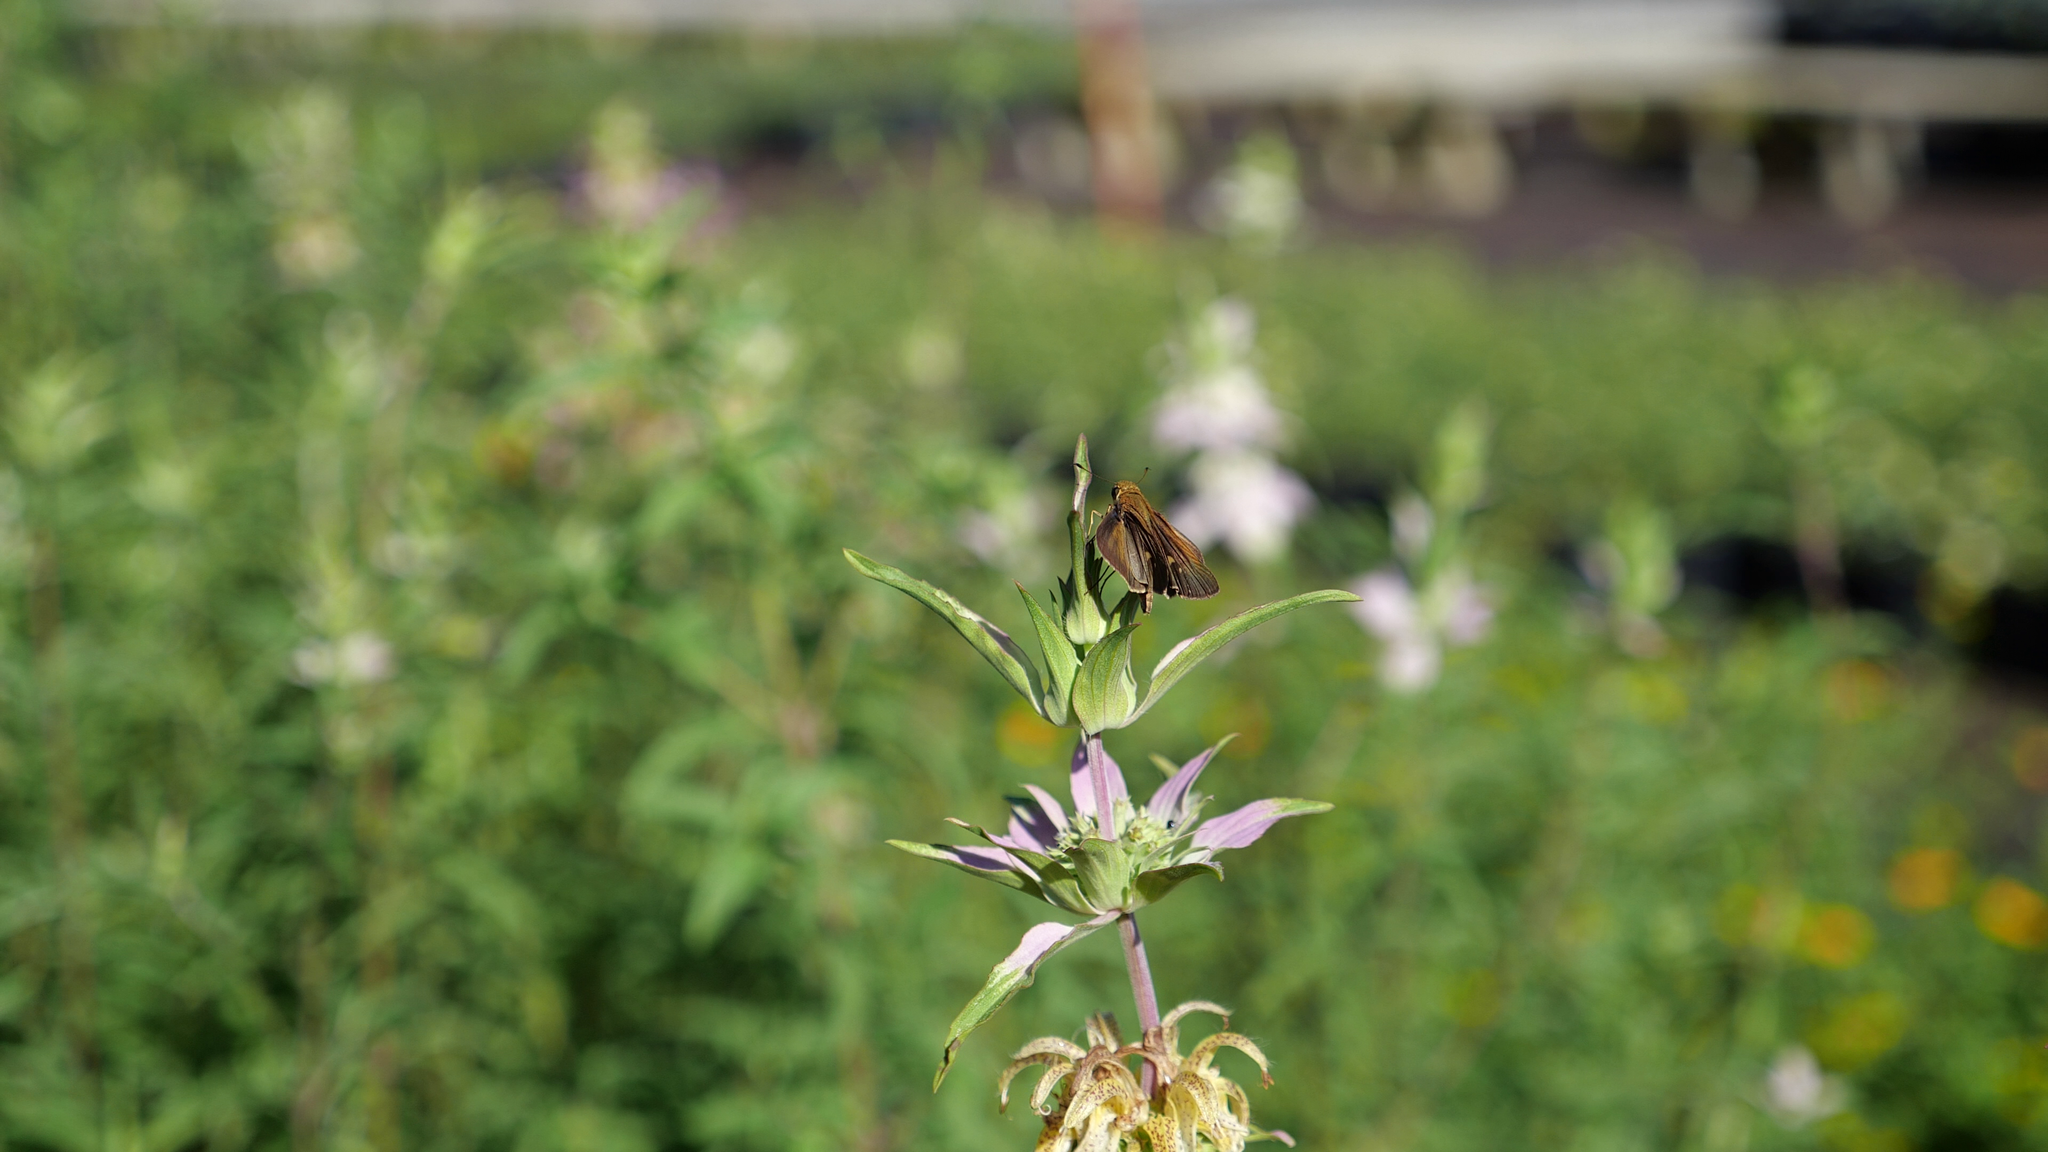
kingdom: Animalia
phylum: Arthropoda
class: Insecta
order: Lepidoptera
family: Hesperiidae
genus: Panoquina
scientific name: Panoquina ocola
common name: Ocola skipper
